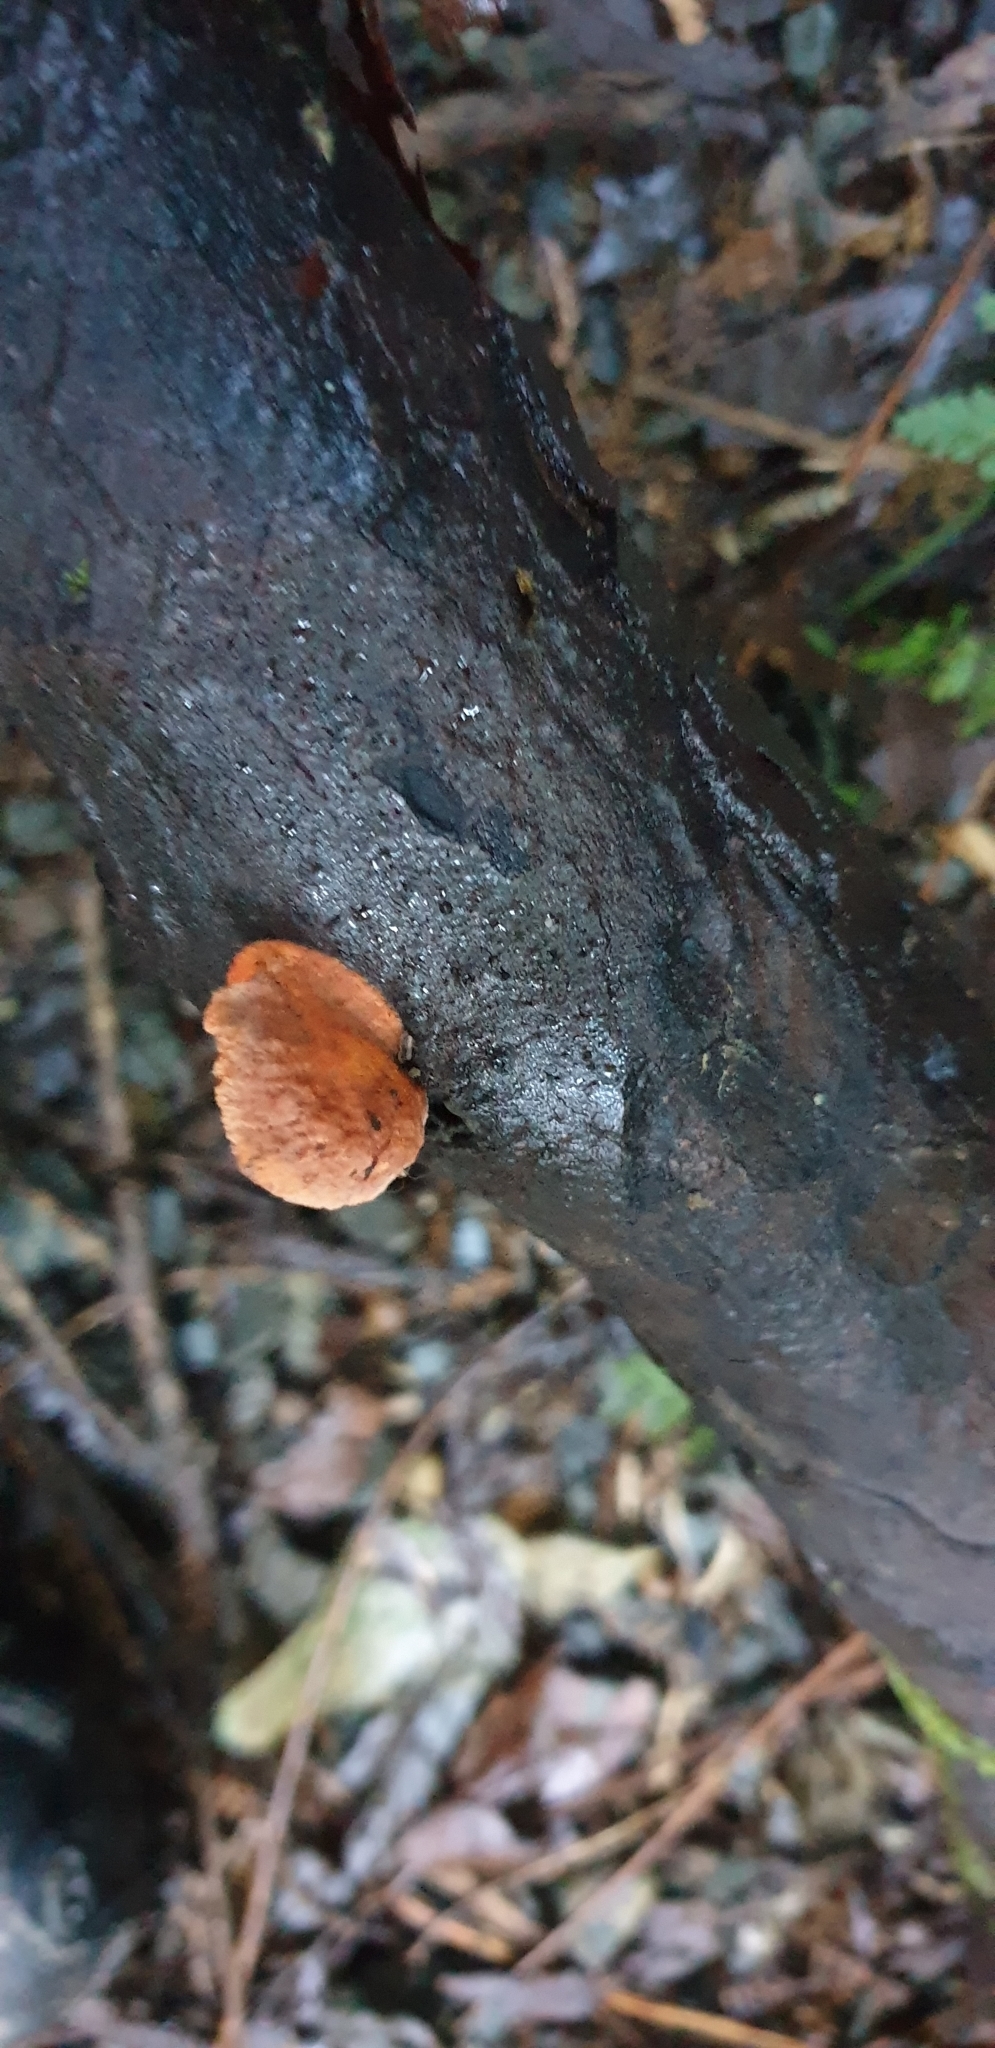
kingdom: Fungi
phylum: Basidiomycota
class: Agaricomycetes
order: Polyporales
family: Polyporaceae
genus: Trametes
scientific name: Trametes coccinea
